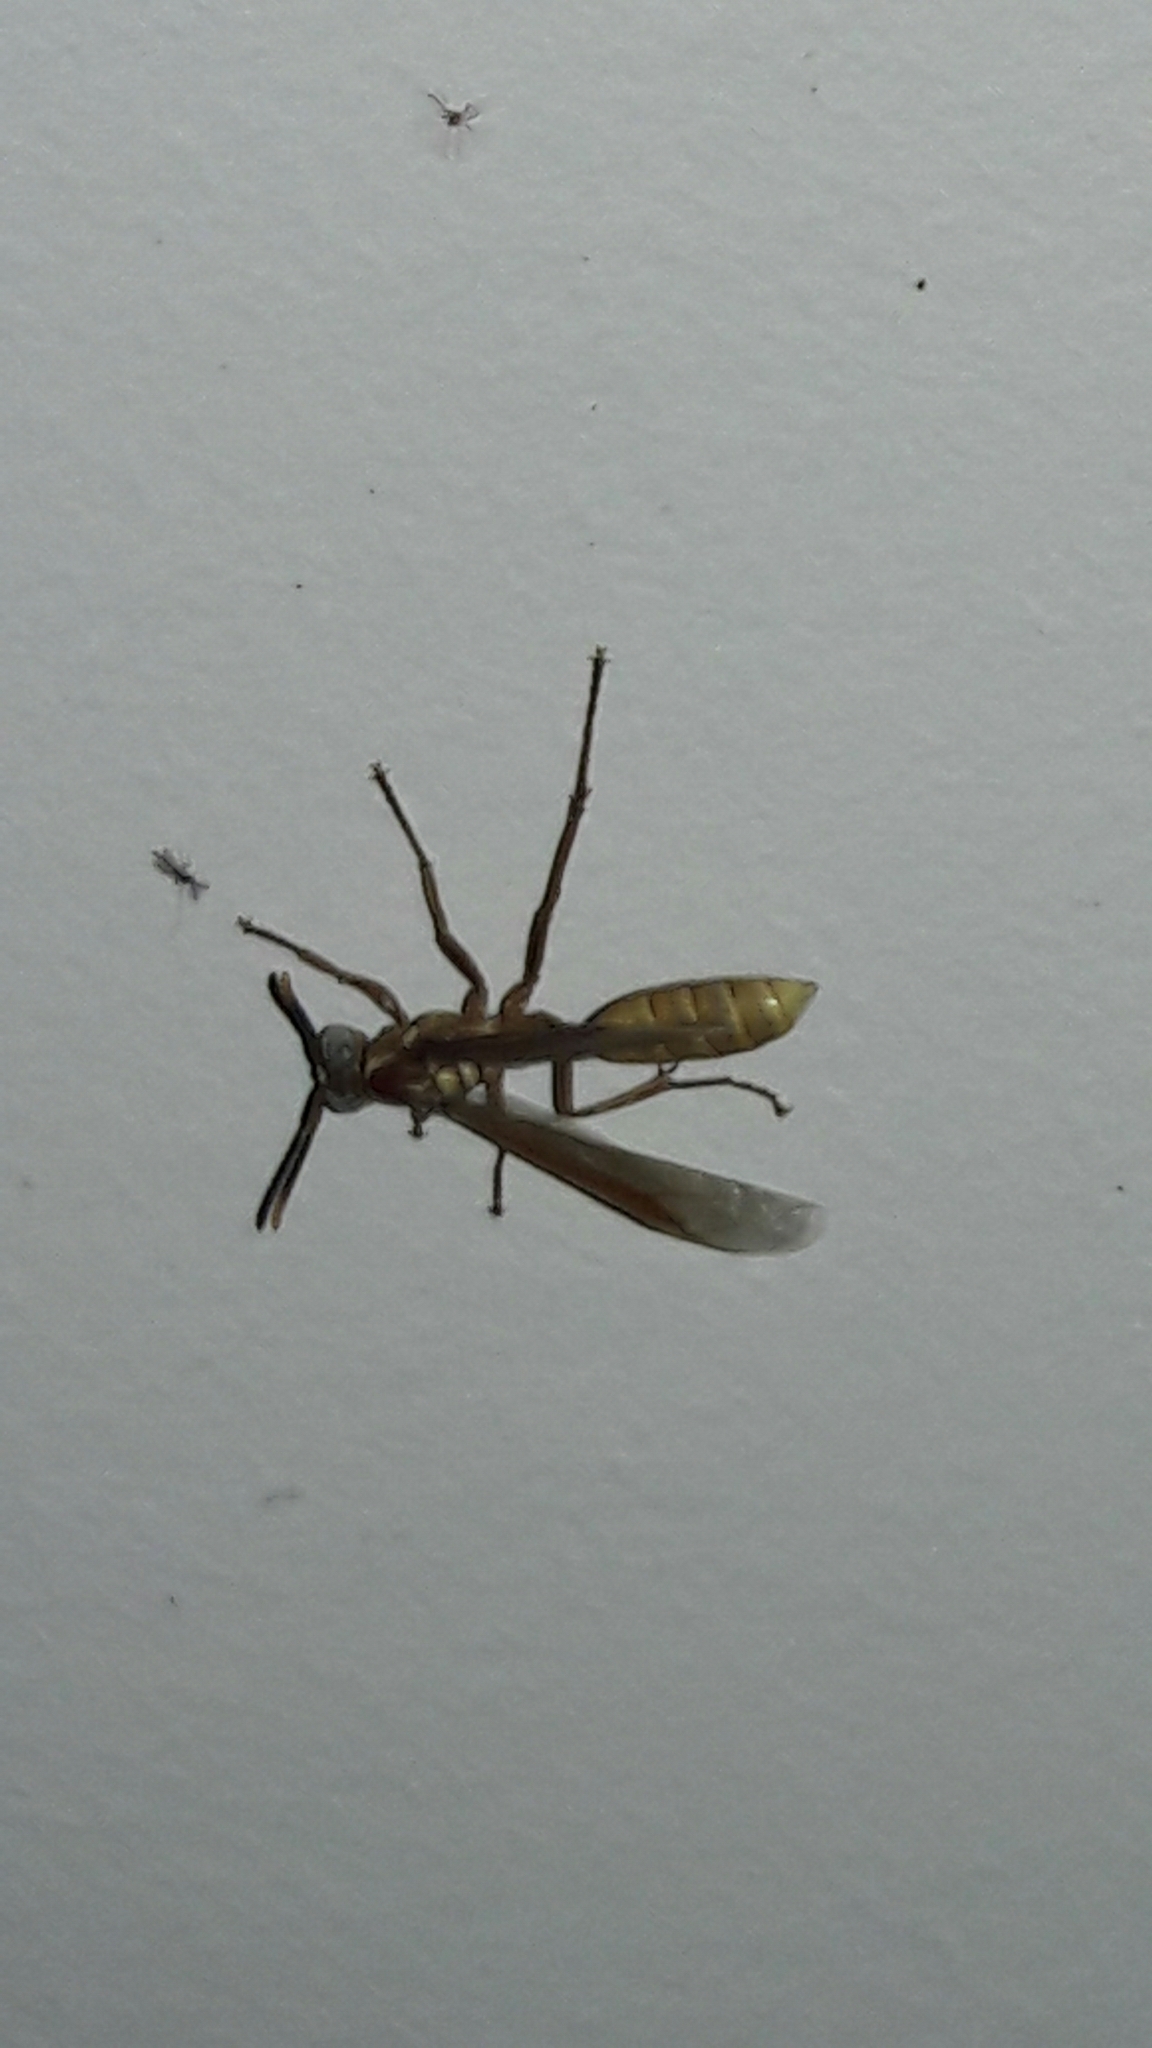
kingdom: Animalia
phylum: Arthropoda
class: Insecta
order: Hymenoptera
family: Vespidae
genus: Apoica
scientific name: Apoica flavissima
